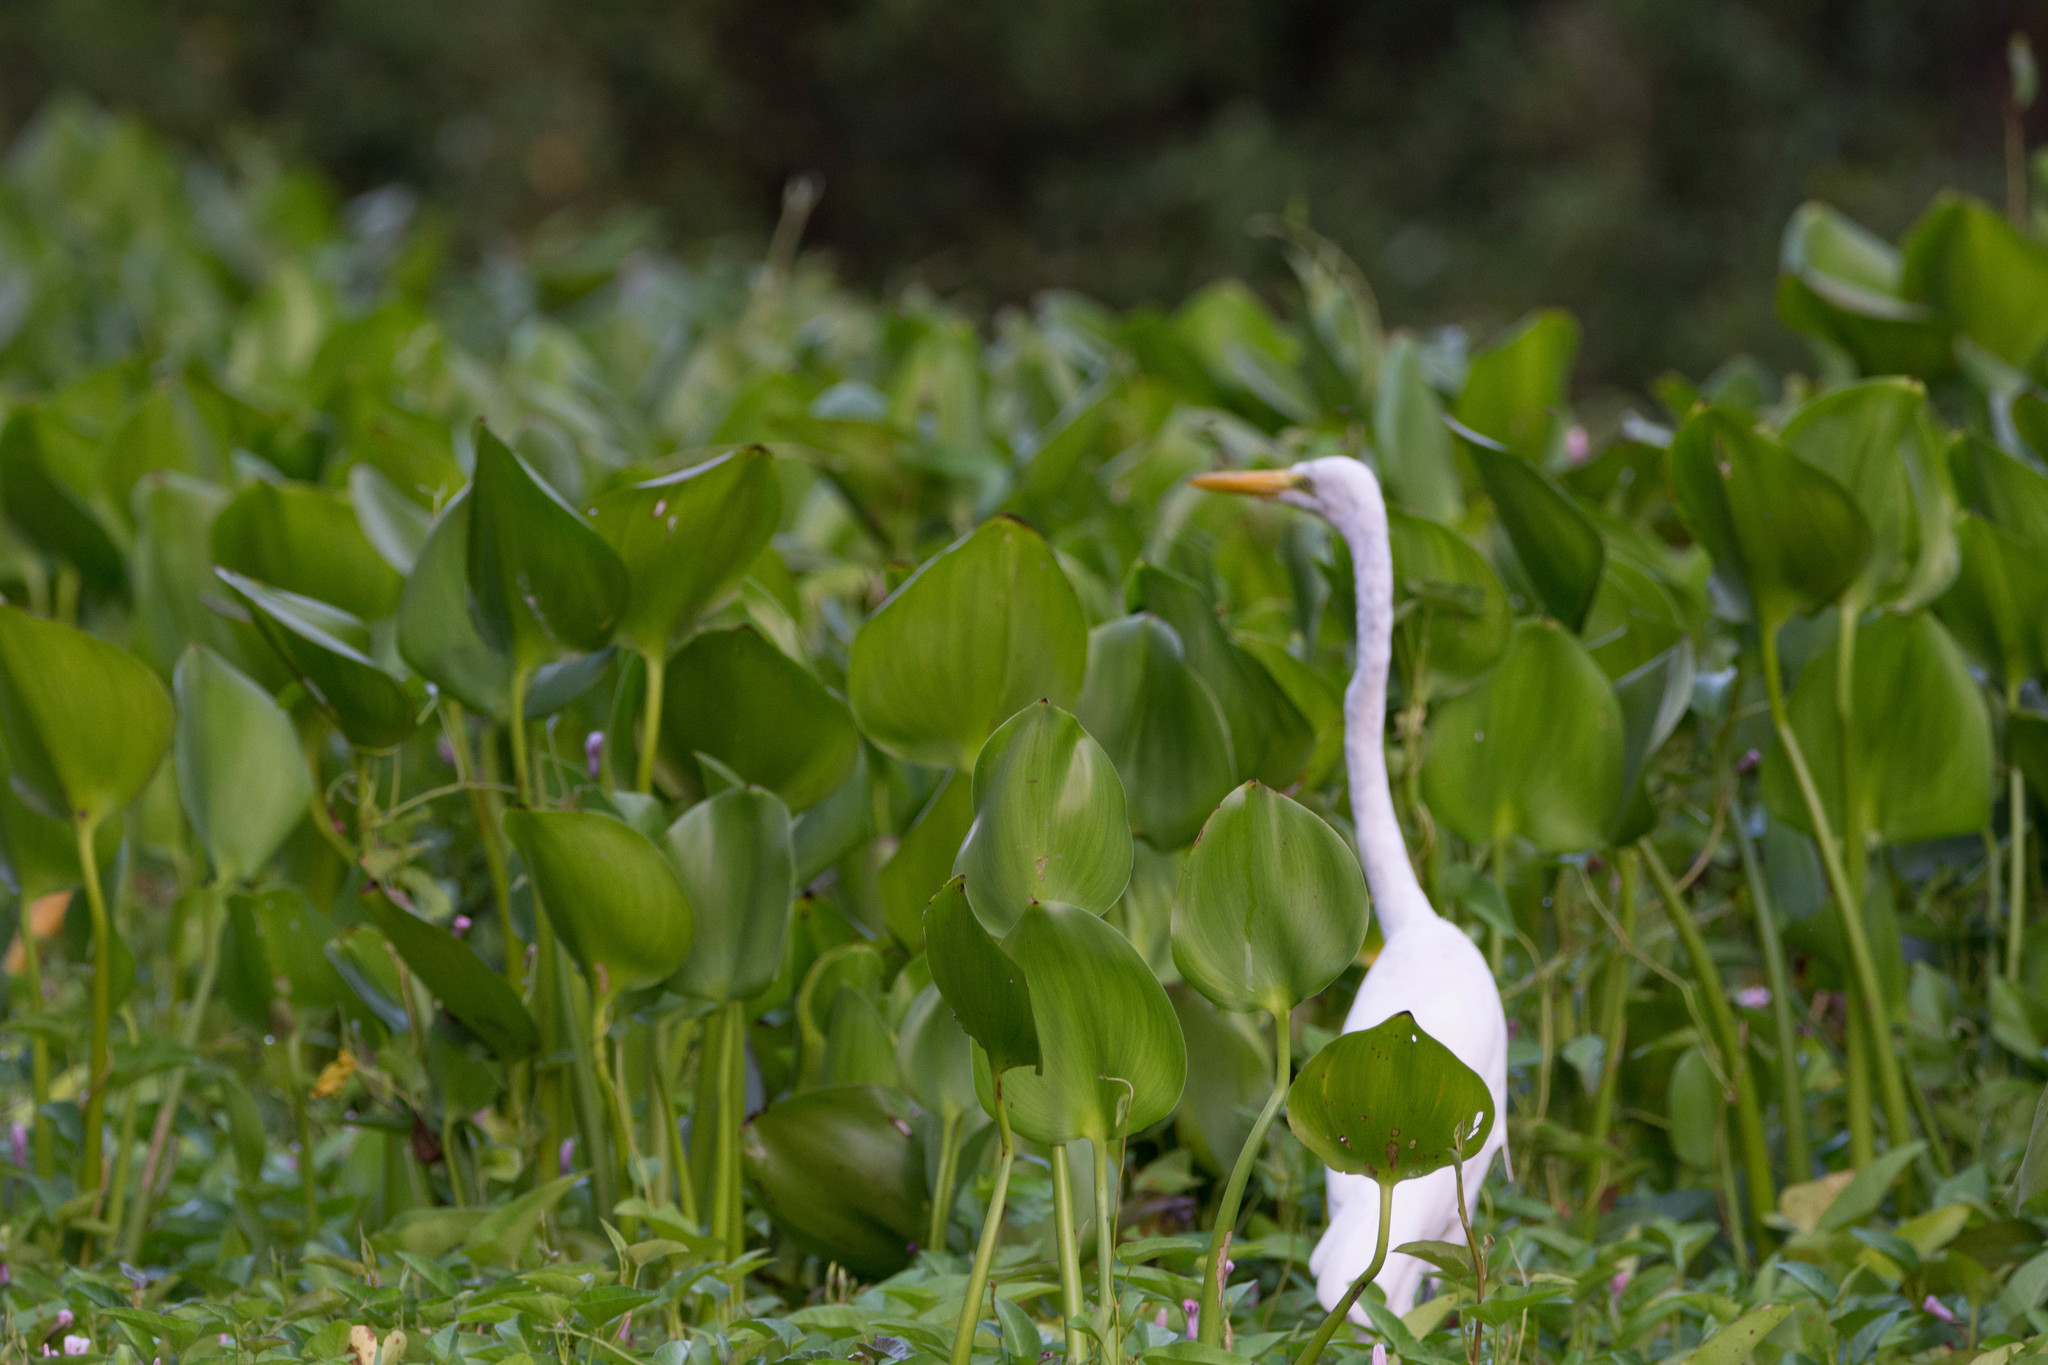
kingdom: Animalia
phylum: Chordata
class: Aves
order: Pelecaniformes
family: Ardeidae
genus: Ardea
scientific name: Ardea alba
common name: Great egret
